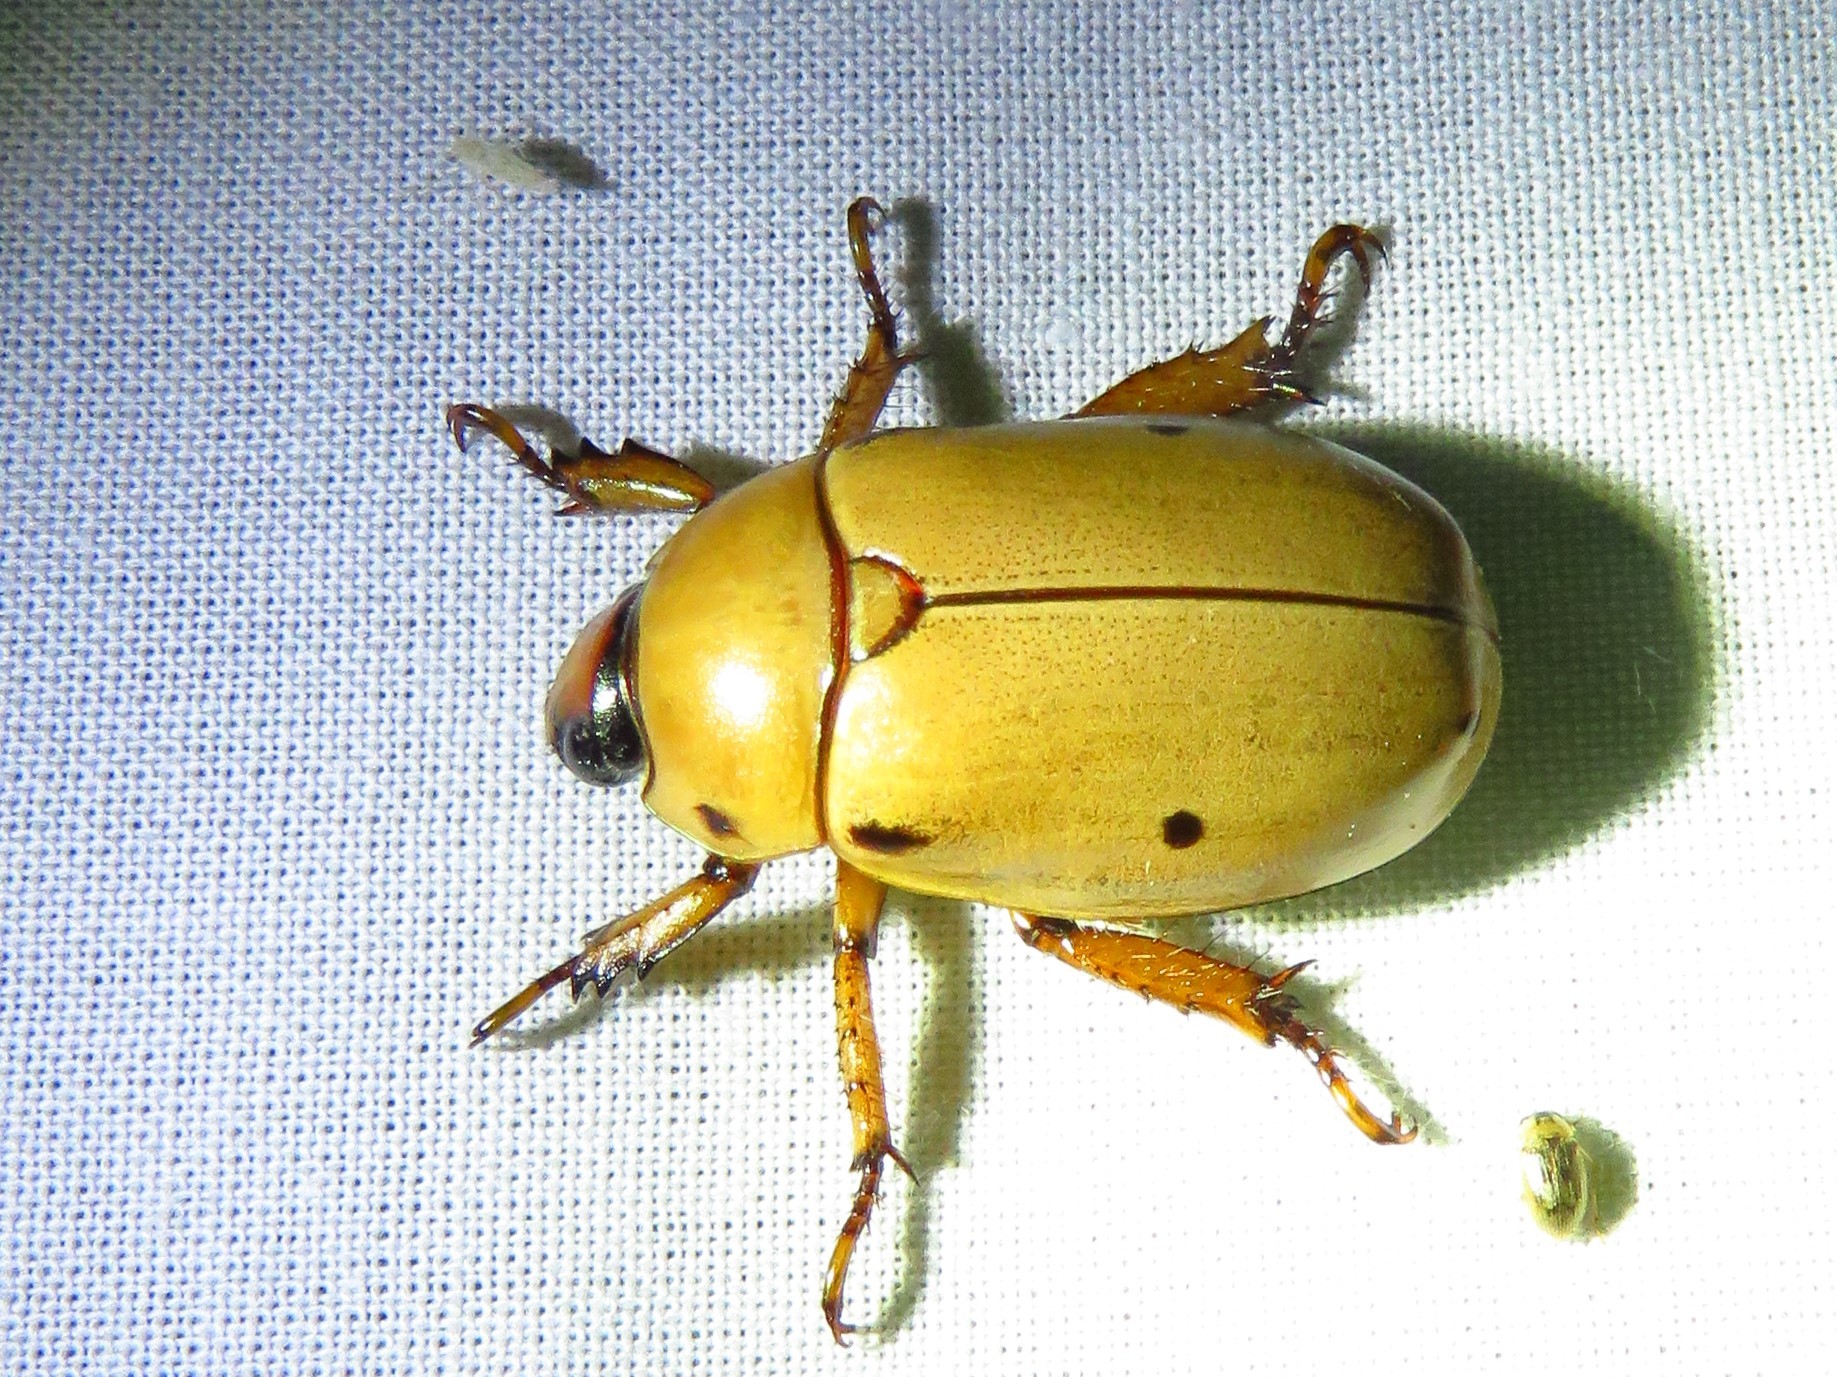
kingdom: Animalia
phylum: Arthropoda
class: Insecta
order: Coleoptera
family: Scarabaeidae
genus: Pelidnota
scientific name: Pelidnota punctata
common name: Grapevine beetle
